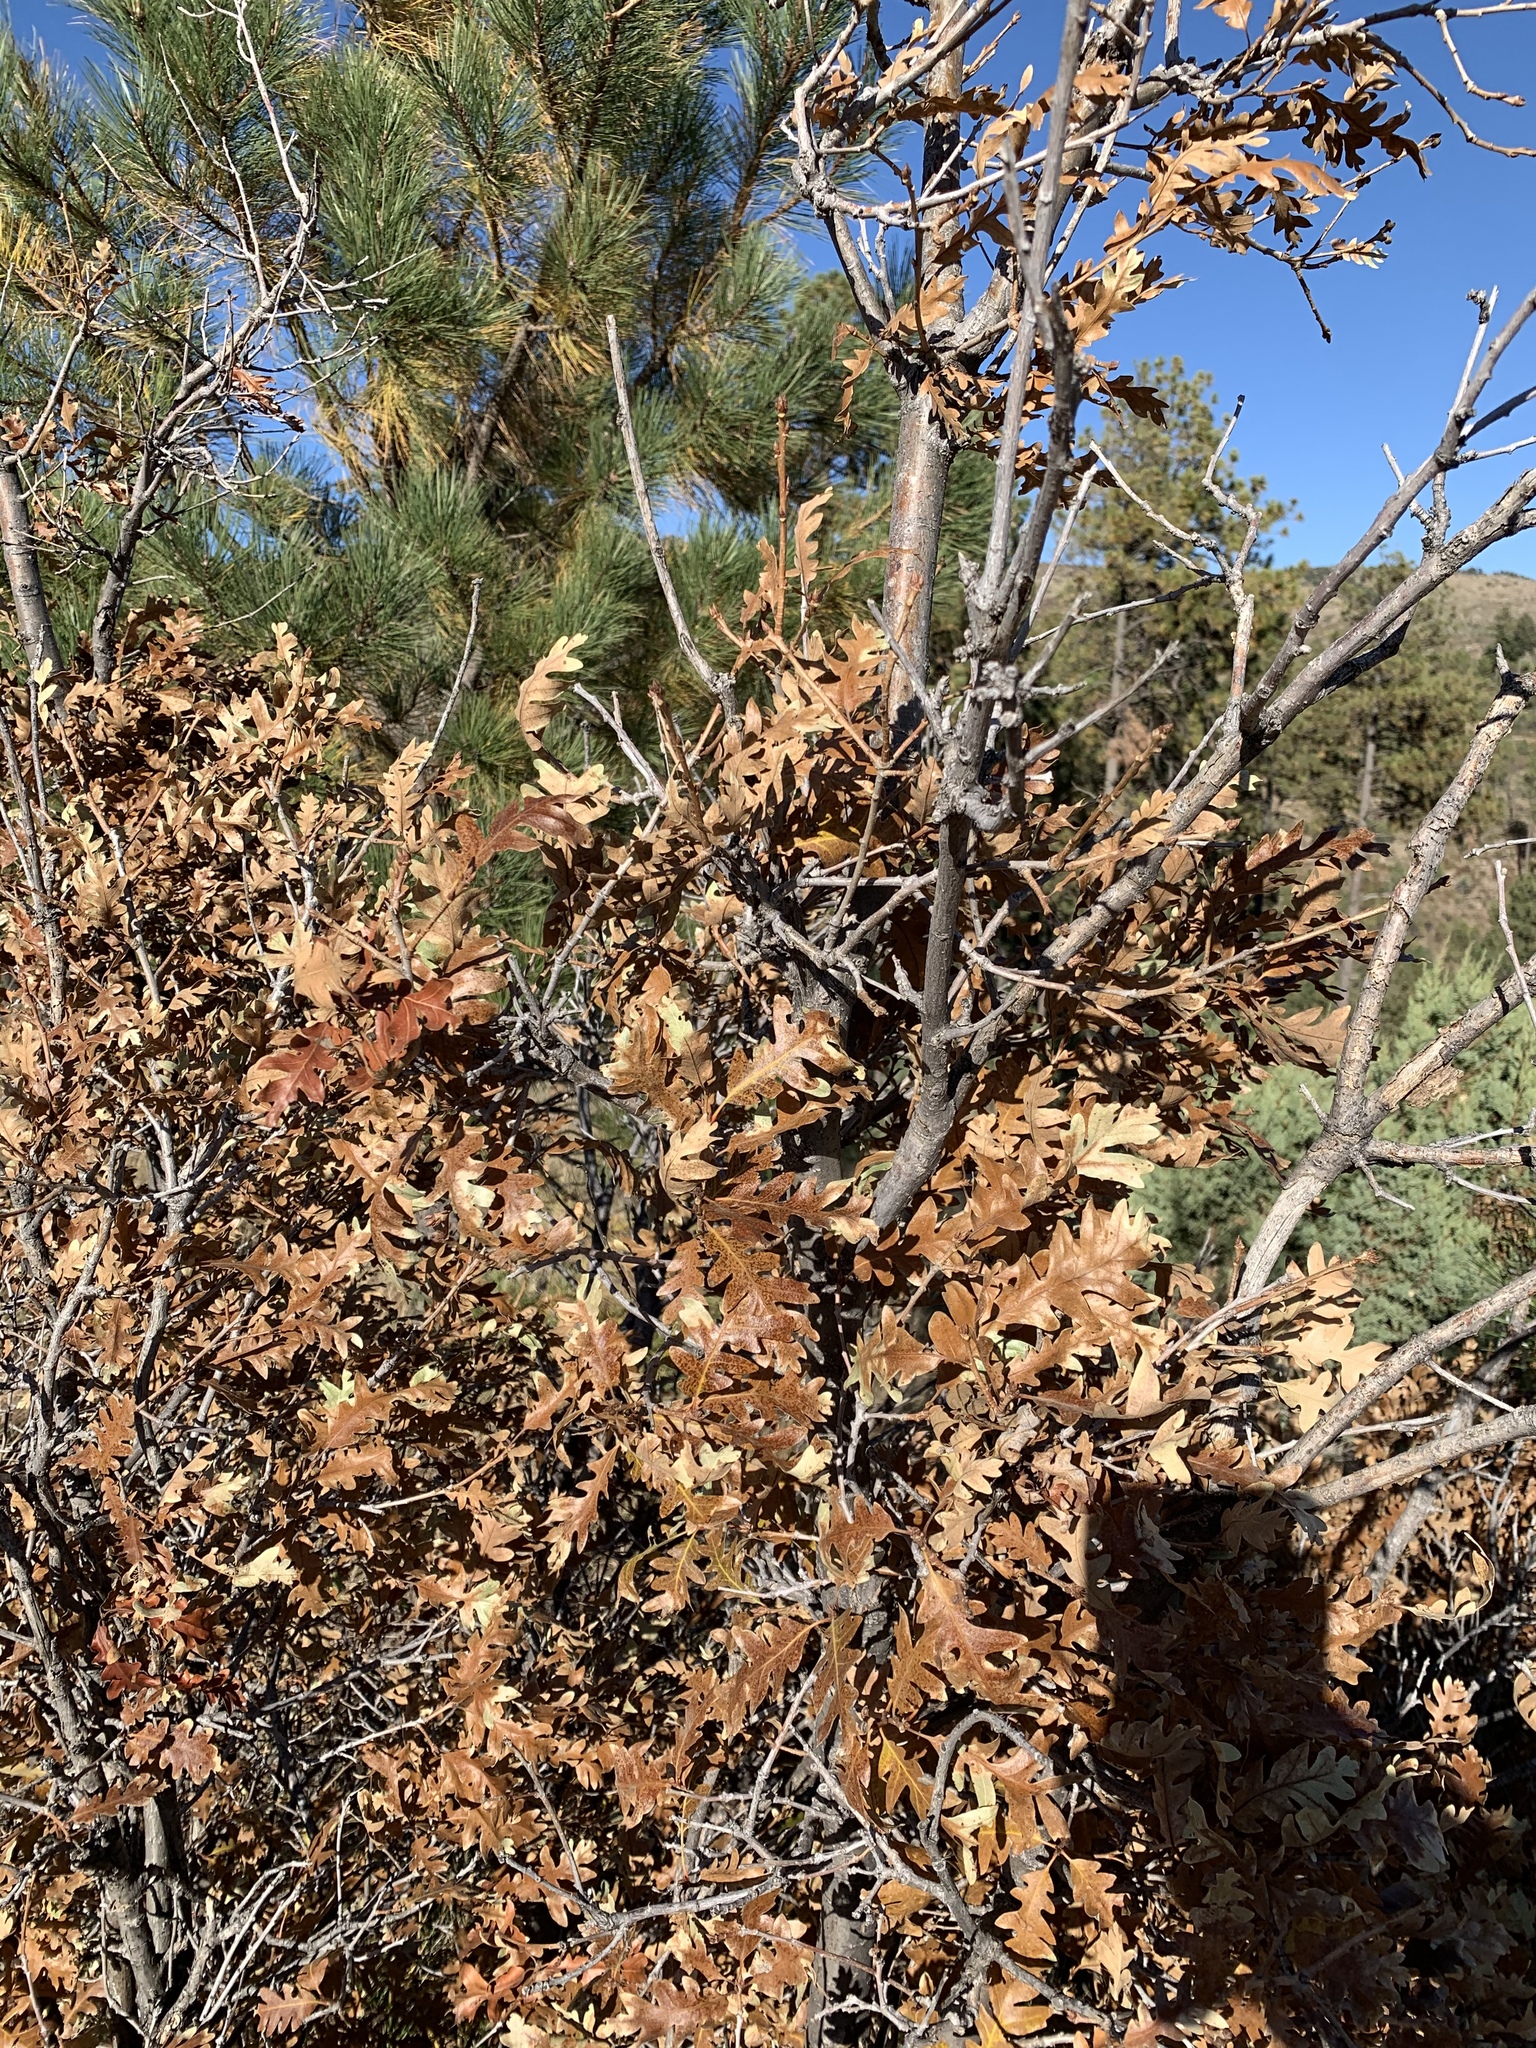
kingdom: Plantae
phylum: Tracheophyta
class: Magnoliopsida
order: Fagales
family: Fagaceae
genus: Quercus
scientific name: Quercus gambelii
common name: Gambel oak
